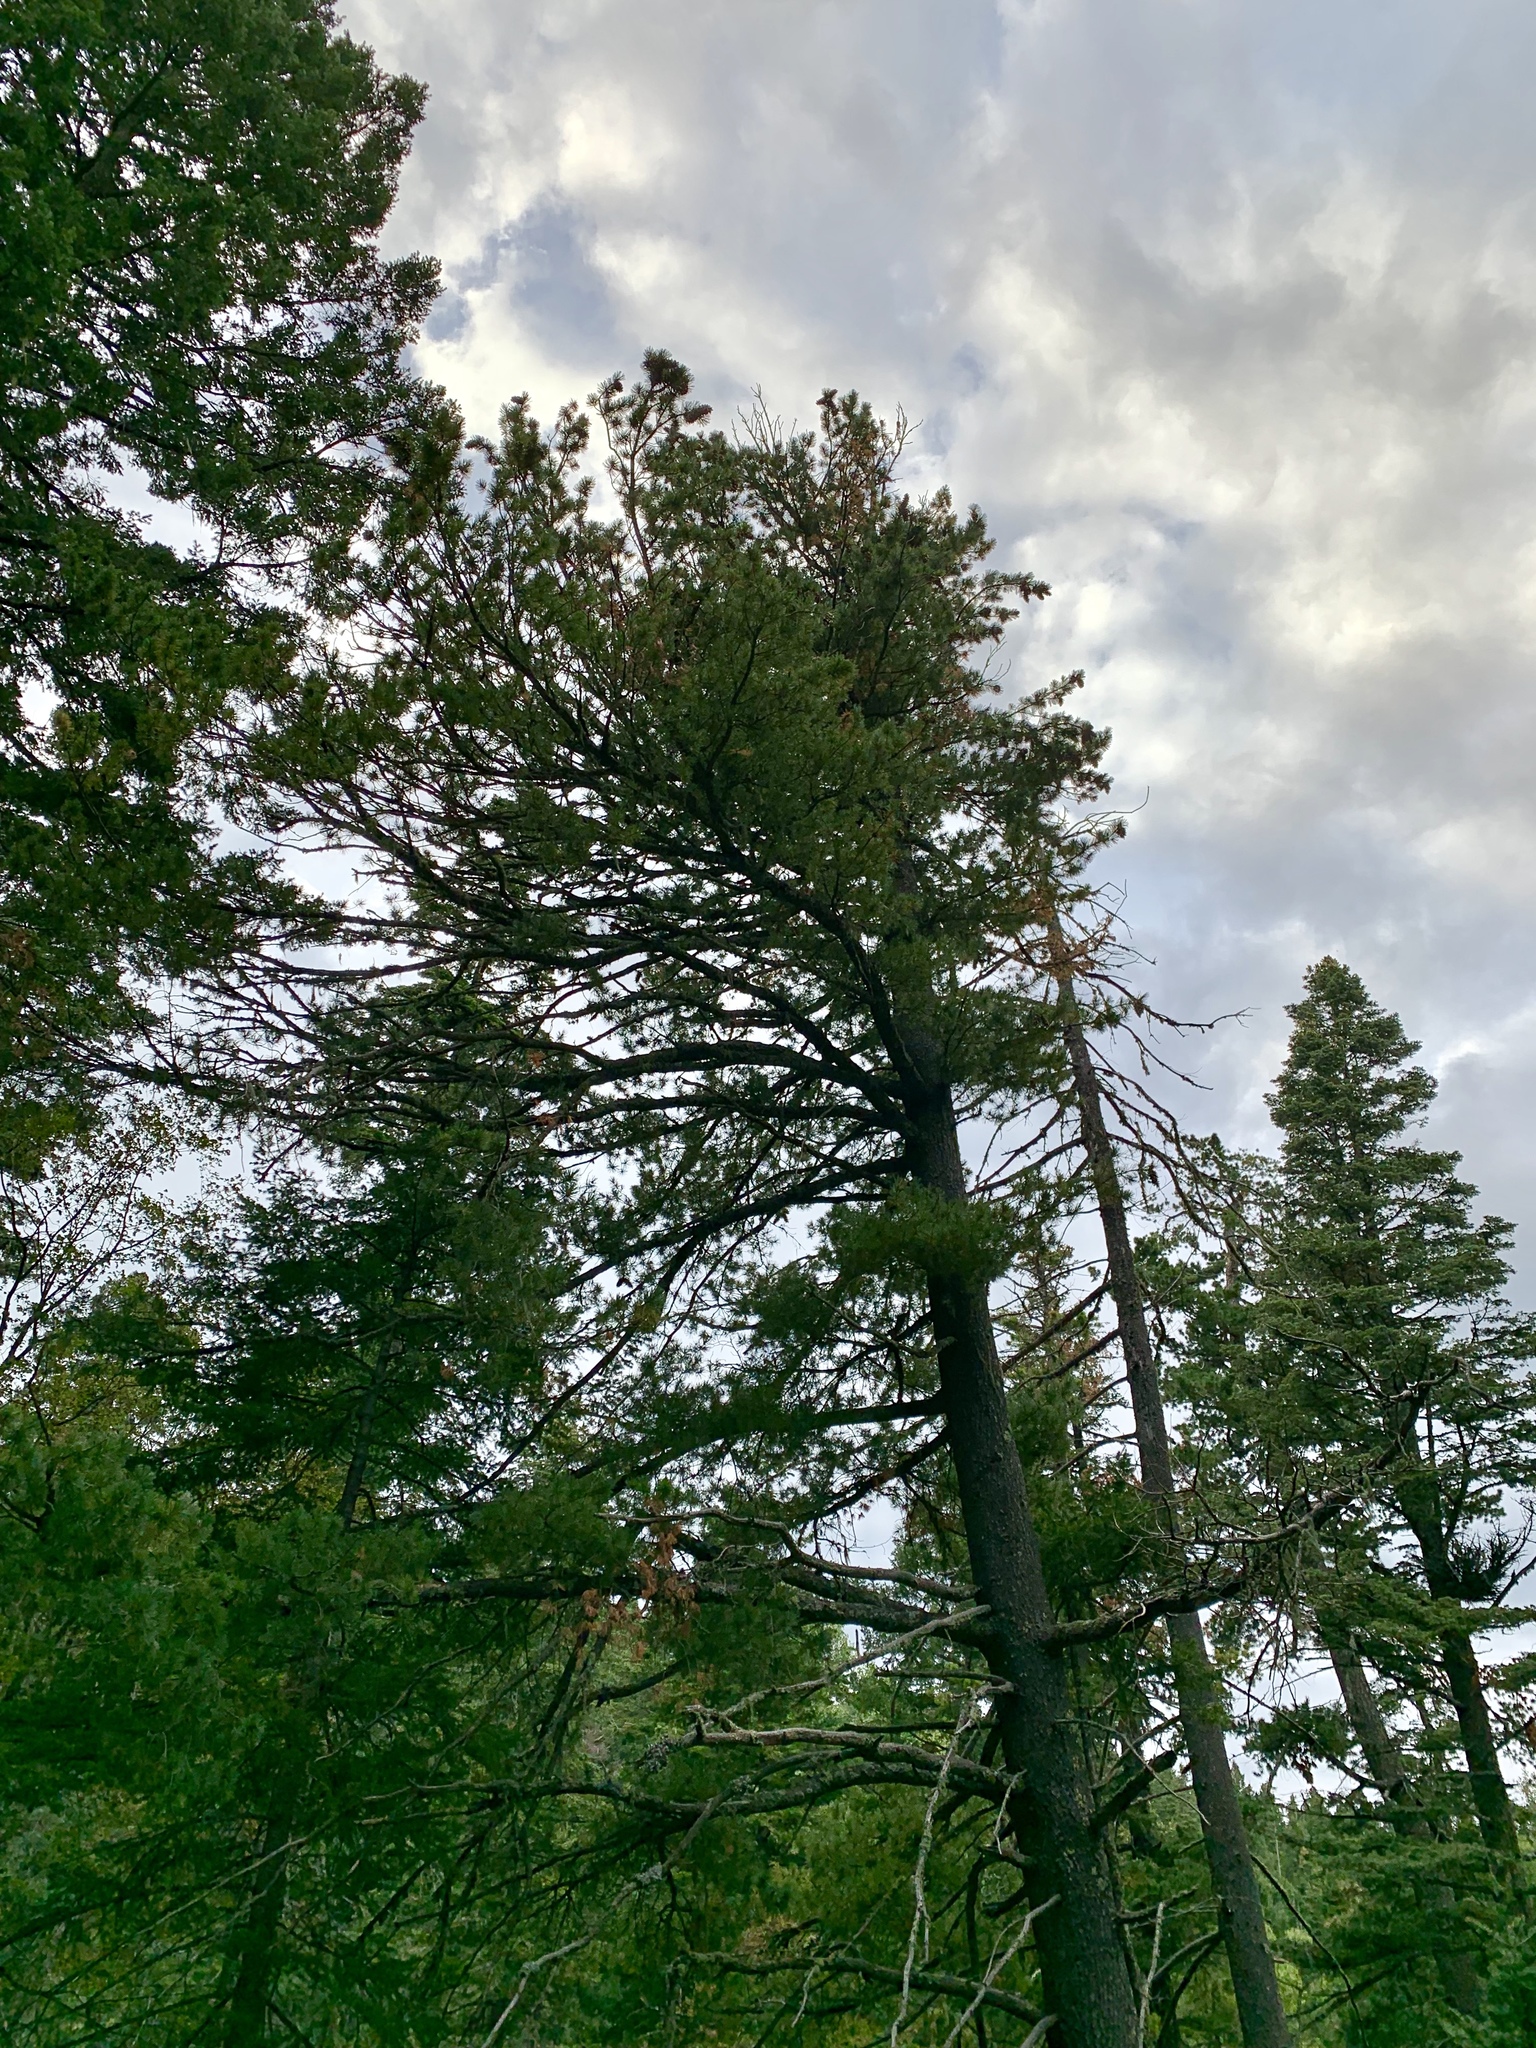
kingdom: Plantae
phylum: Tracheophyta
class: Pinopsida
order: Pinales
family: Pinaceae
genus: Pinus
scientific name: Pinus strobiformis
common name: Southwestern white pine
